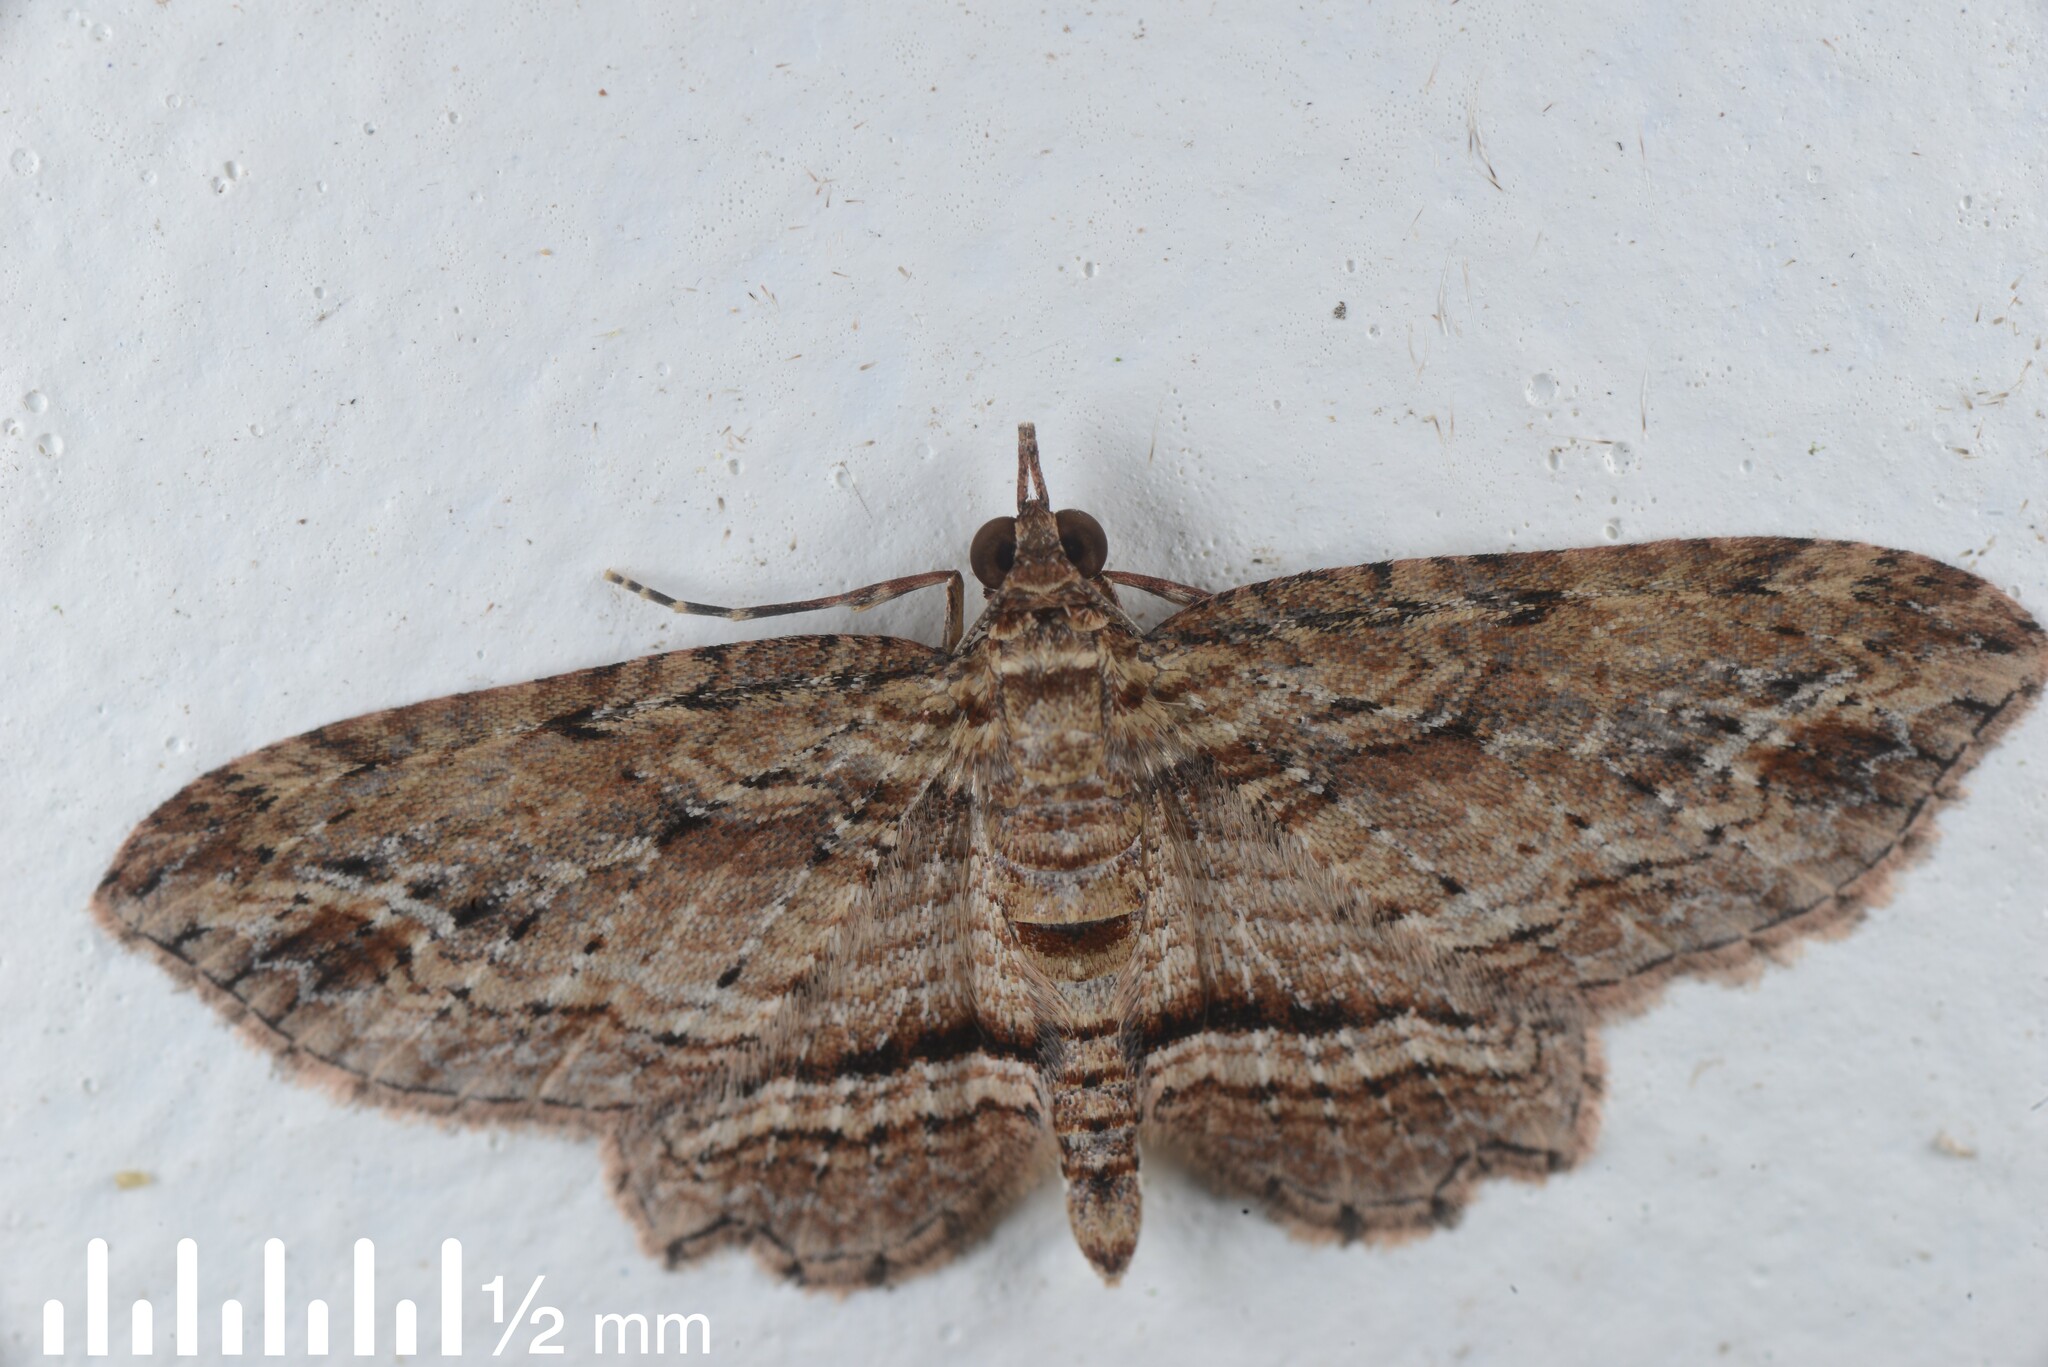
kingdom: Animalia
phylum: Arthropoda
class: Insecta
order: Lepidoptera
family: Geometridae
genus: Chloroclystis
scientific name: Chloroclystis filata
